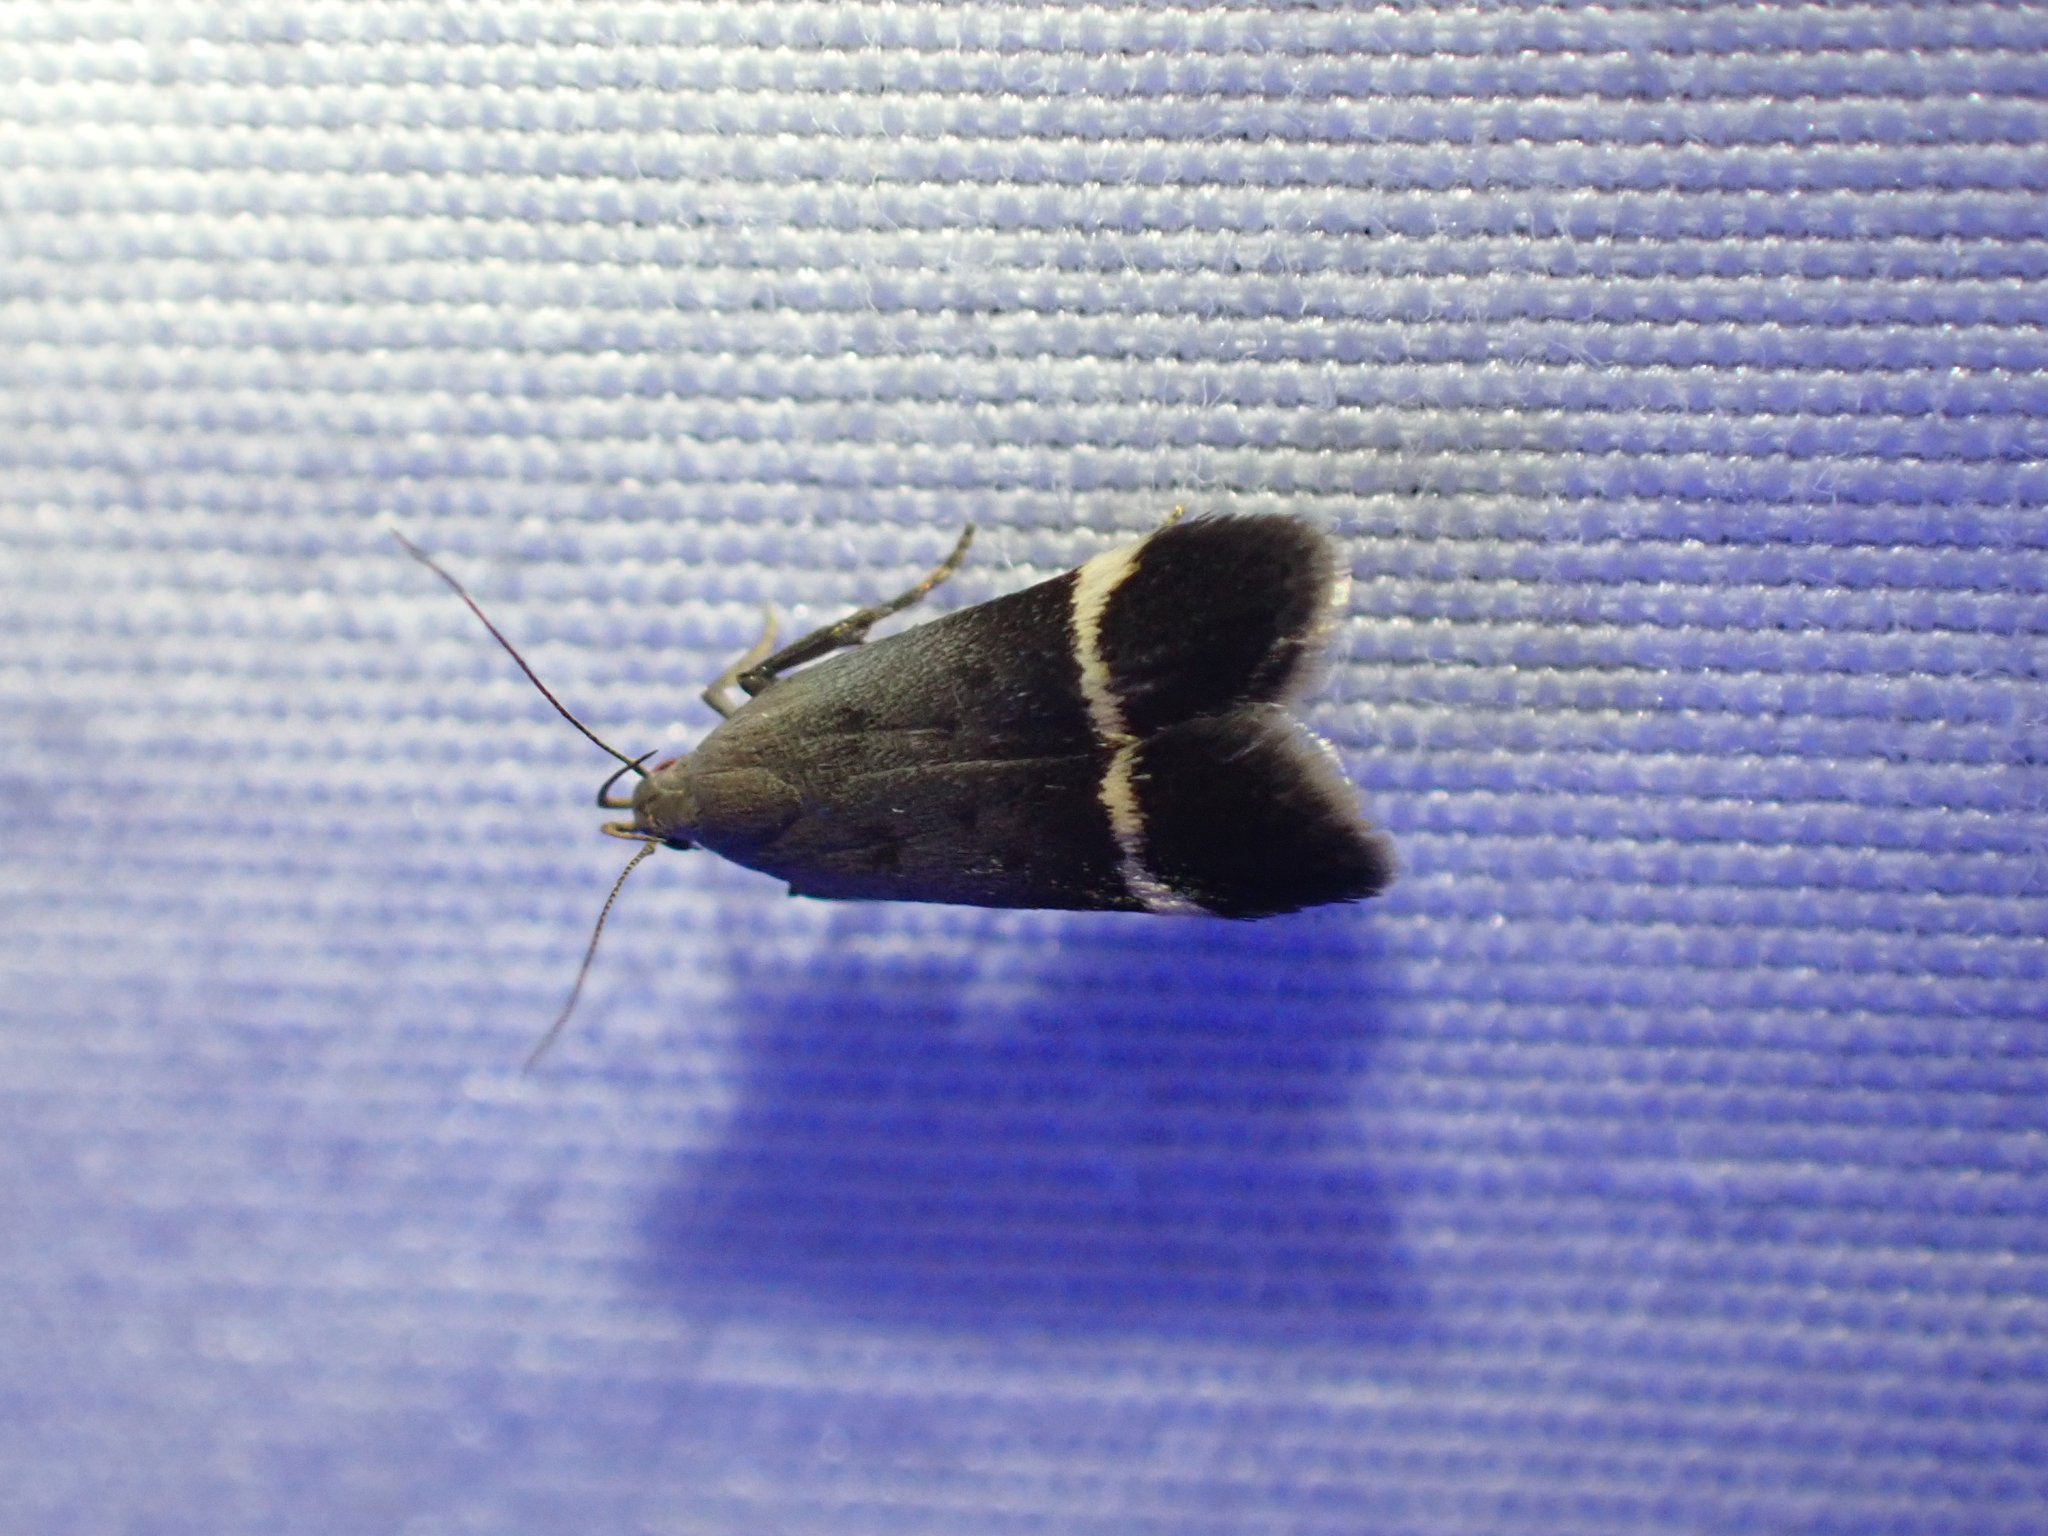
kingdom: Animalia
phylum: Arthropoda
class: Insecta
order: Lepidoptera
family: Gelechiidae
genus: Anacampsis
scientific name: Anacampsis agrimoniella
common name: Agrimony anacampsis moth
